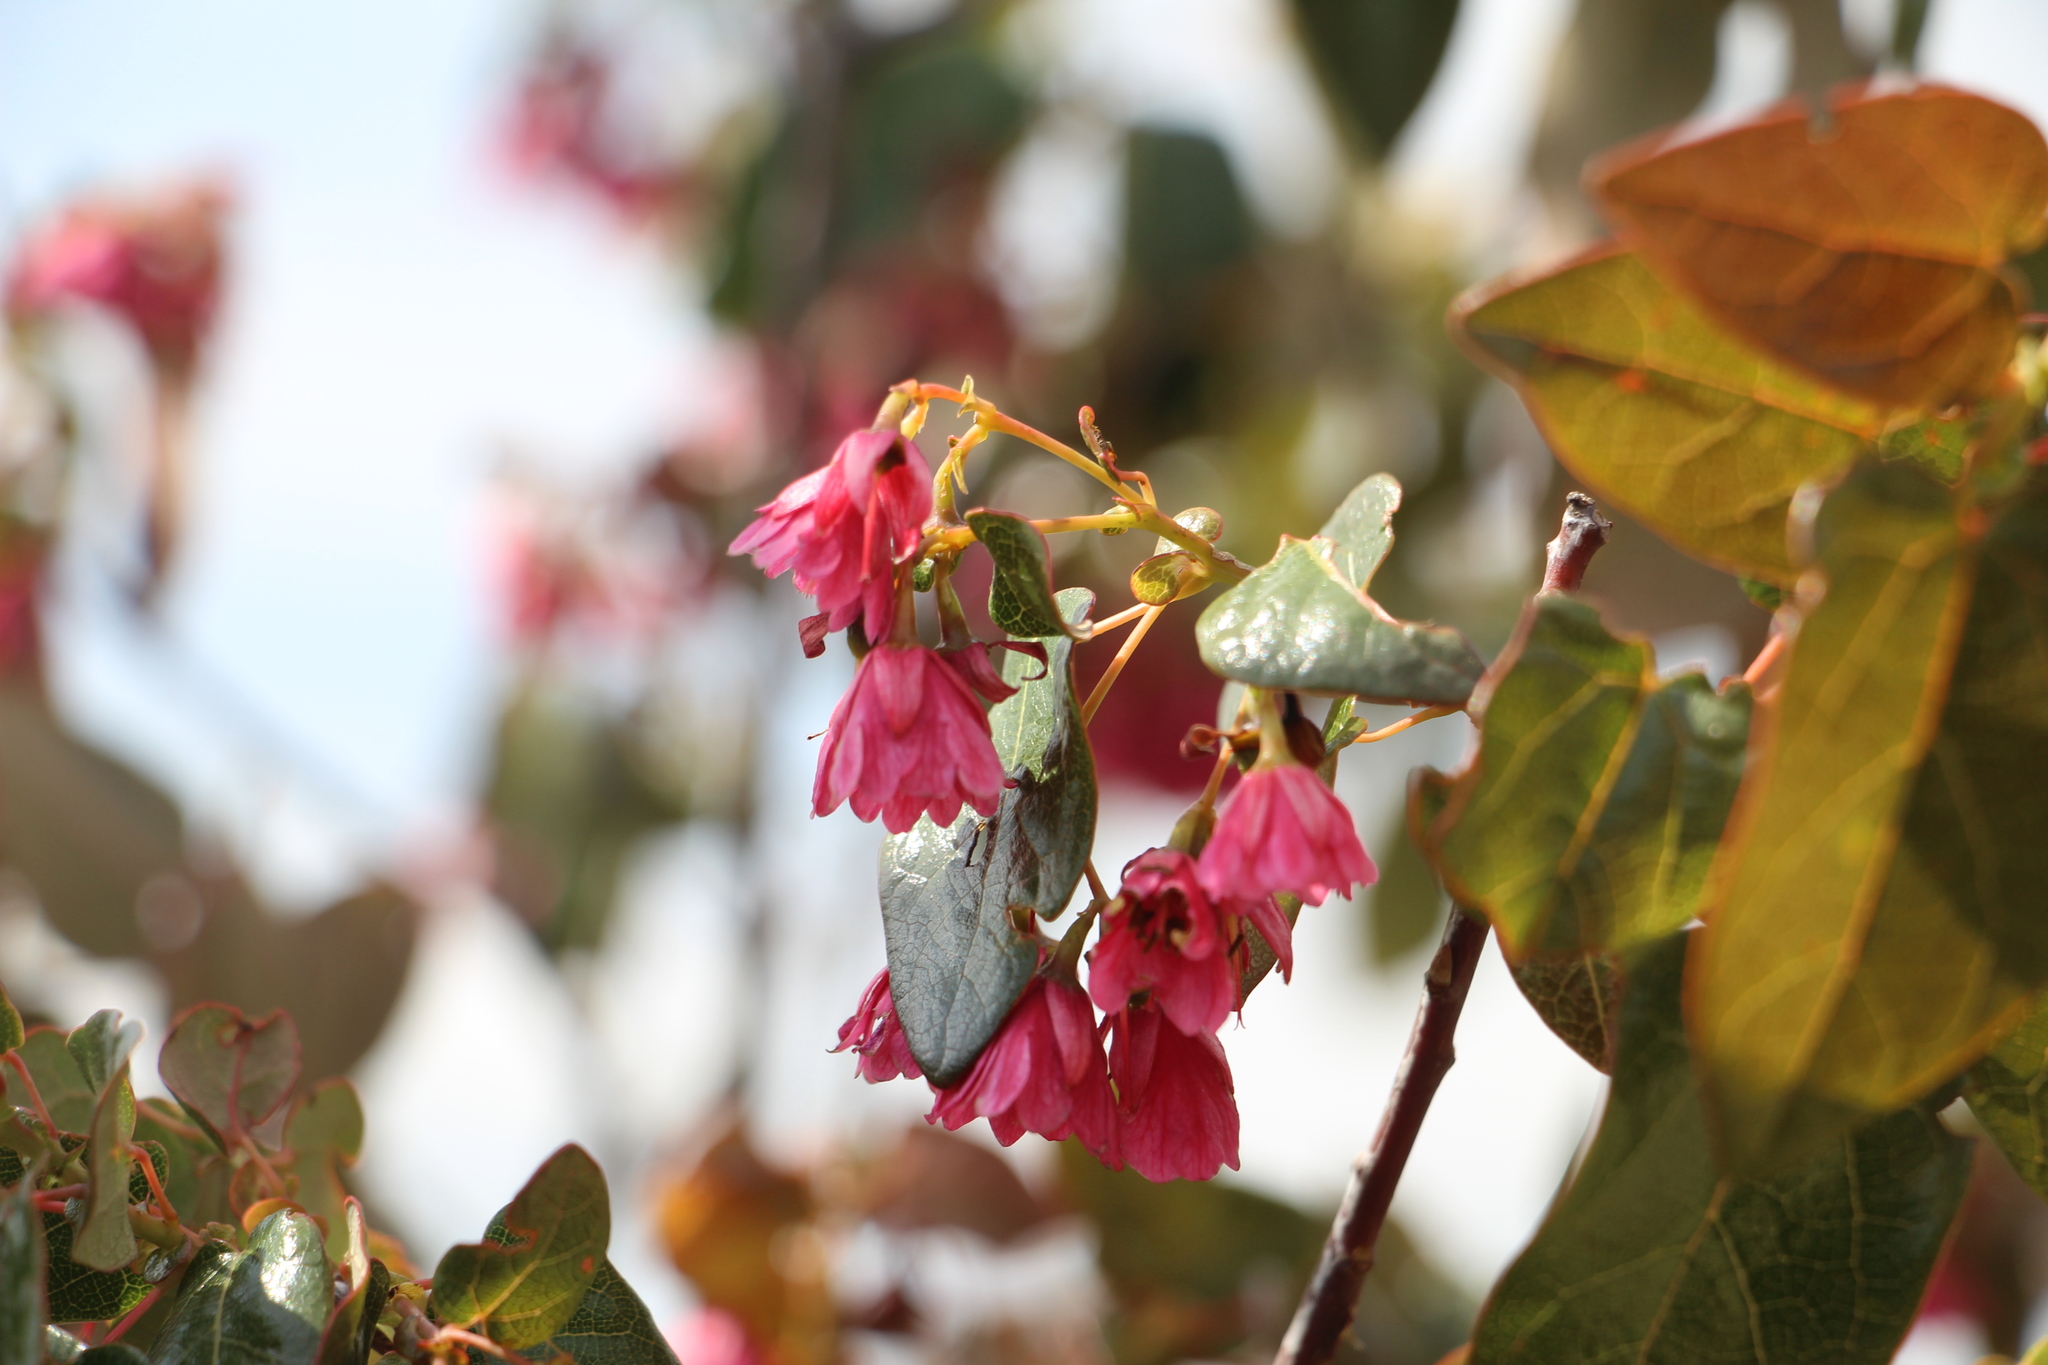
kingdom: Plantae
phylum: Tracheophyta
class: Magnoliopsida
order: Oxalidales
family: Elaeocarpaceae
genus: Vallea
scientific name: Vallea stipularis
